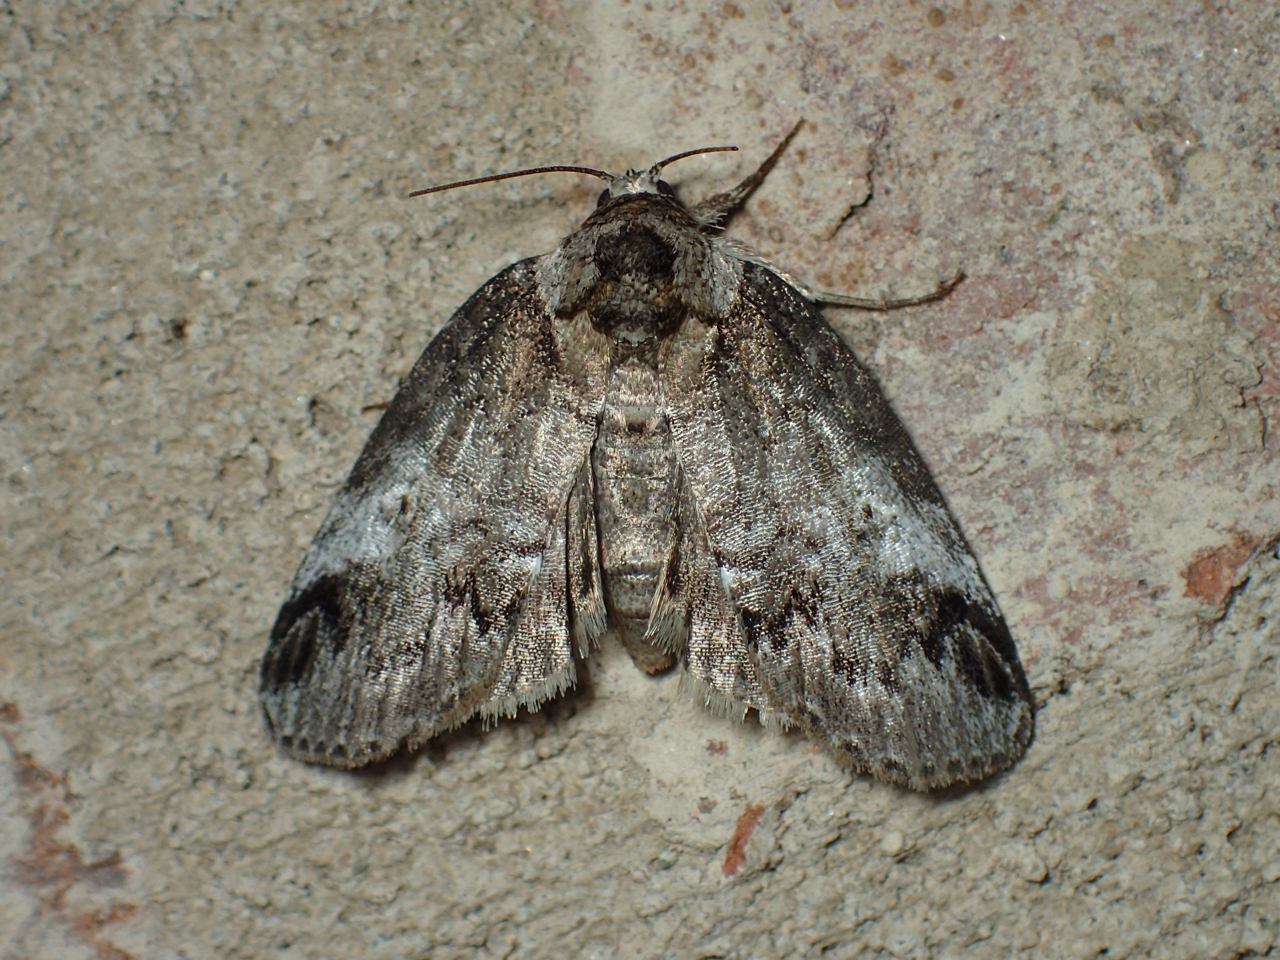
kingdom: Animalia
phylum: Arthropoda
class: Insecta
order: Lepidoptera
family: Nolidae
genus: Baileya
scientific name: Baileya acadiana
